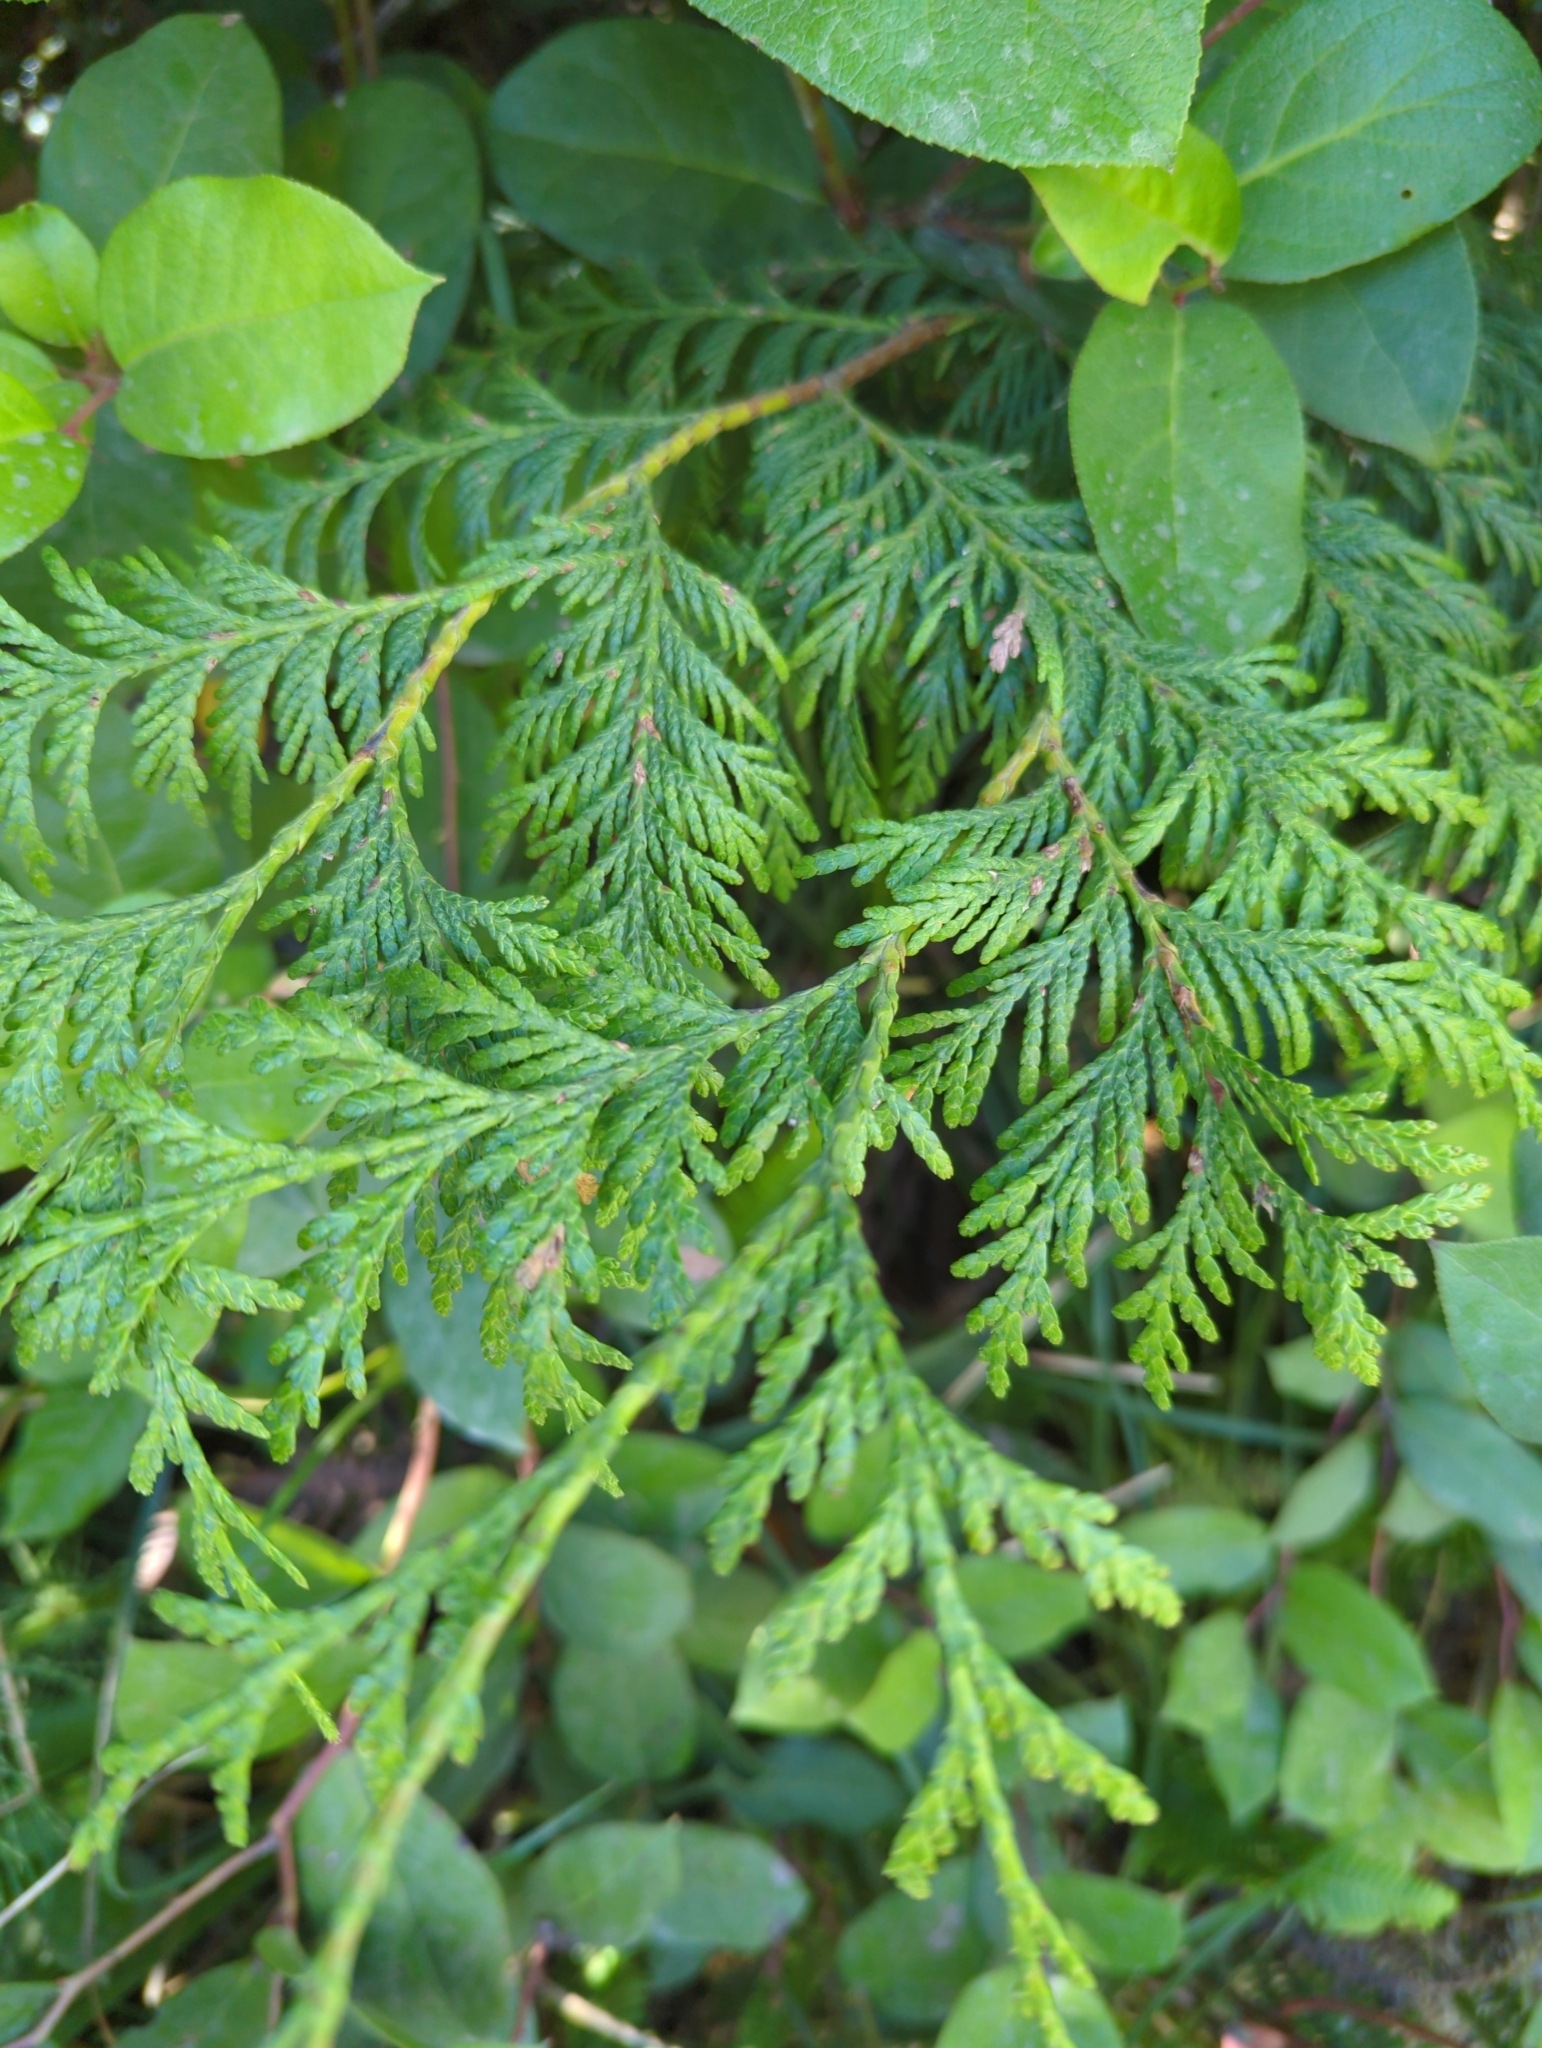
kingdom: Plantae
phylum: Tracheophyta
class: Pinopsida
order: Pinales
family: Cupressaceae
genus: Thuja
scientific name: Thuja plicata
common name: Western red-cedar
